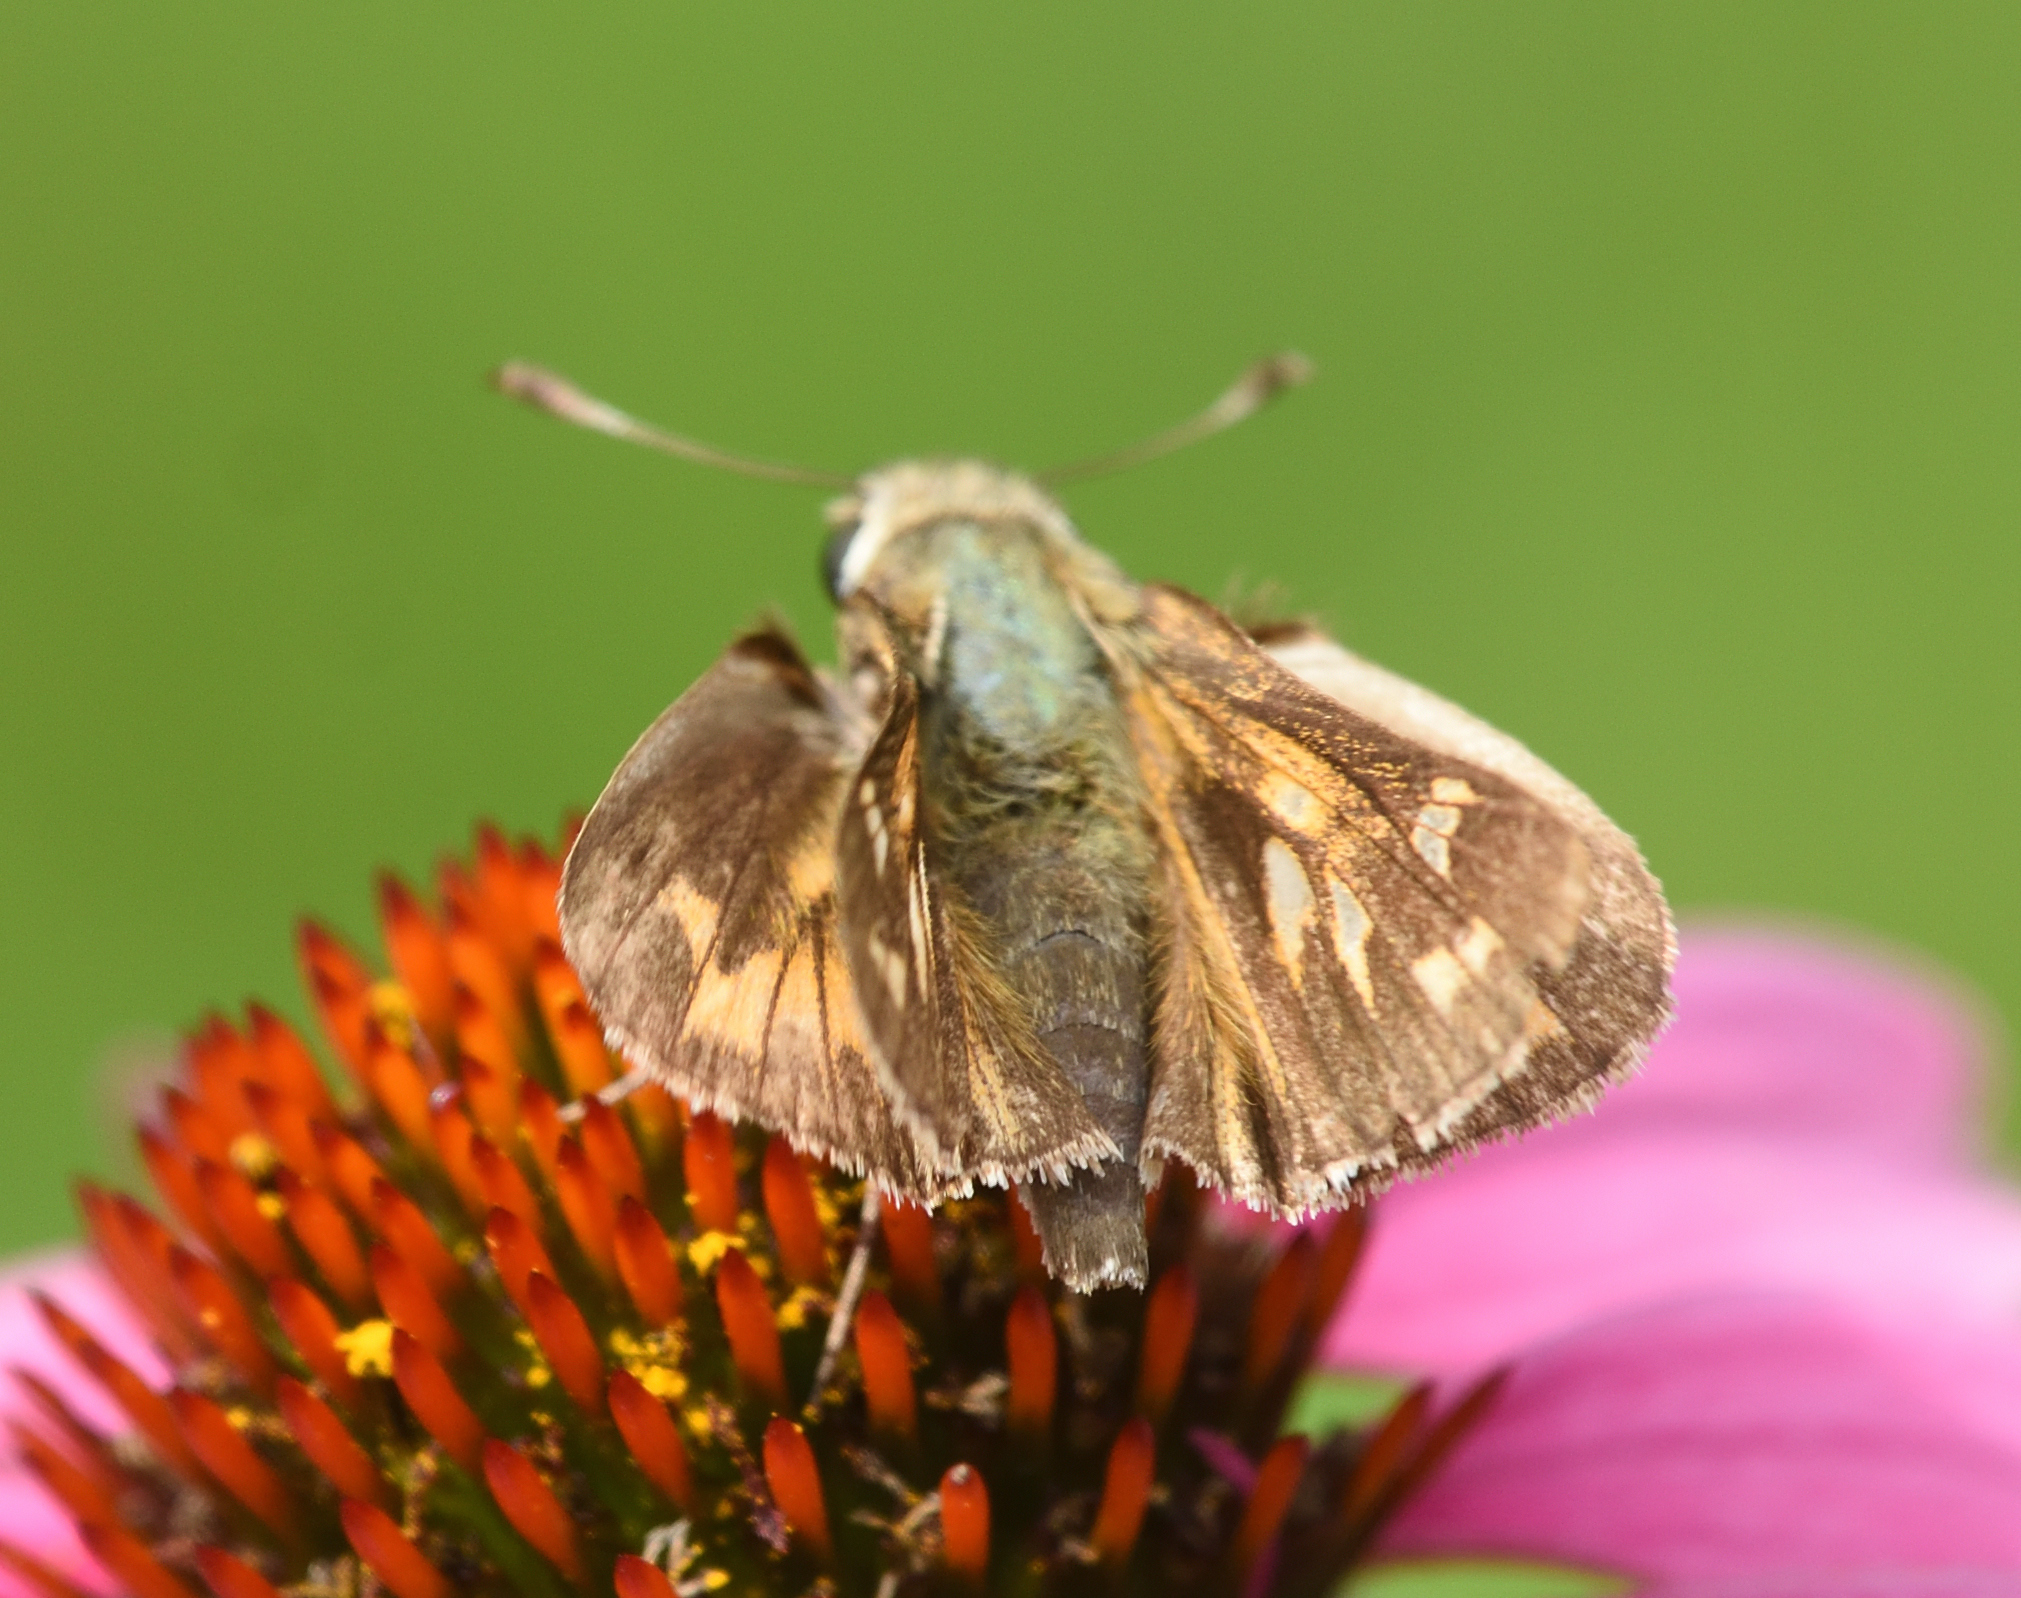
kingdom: Animalia
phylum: Arthropoda
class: Insecta
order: Lepidoptera
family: Hesperiidae
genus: Atalopedes
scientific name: Atalopedes
